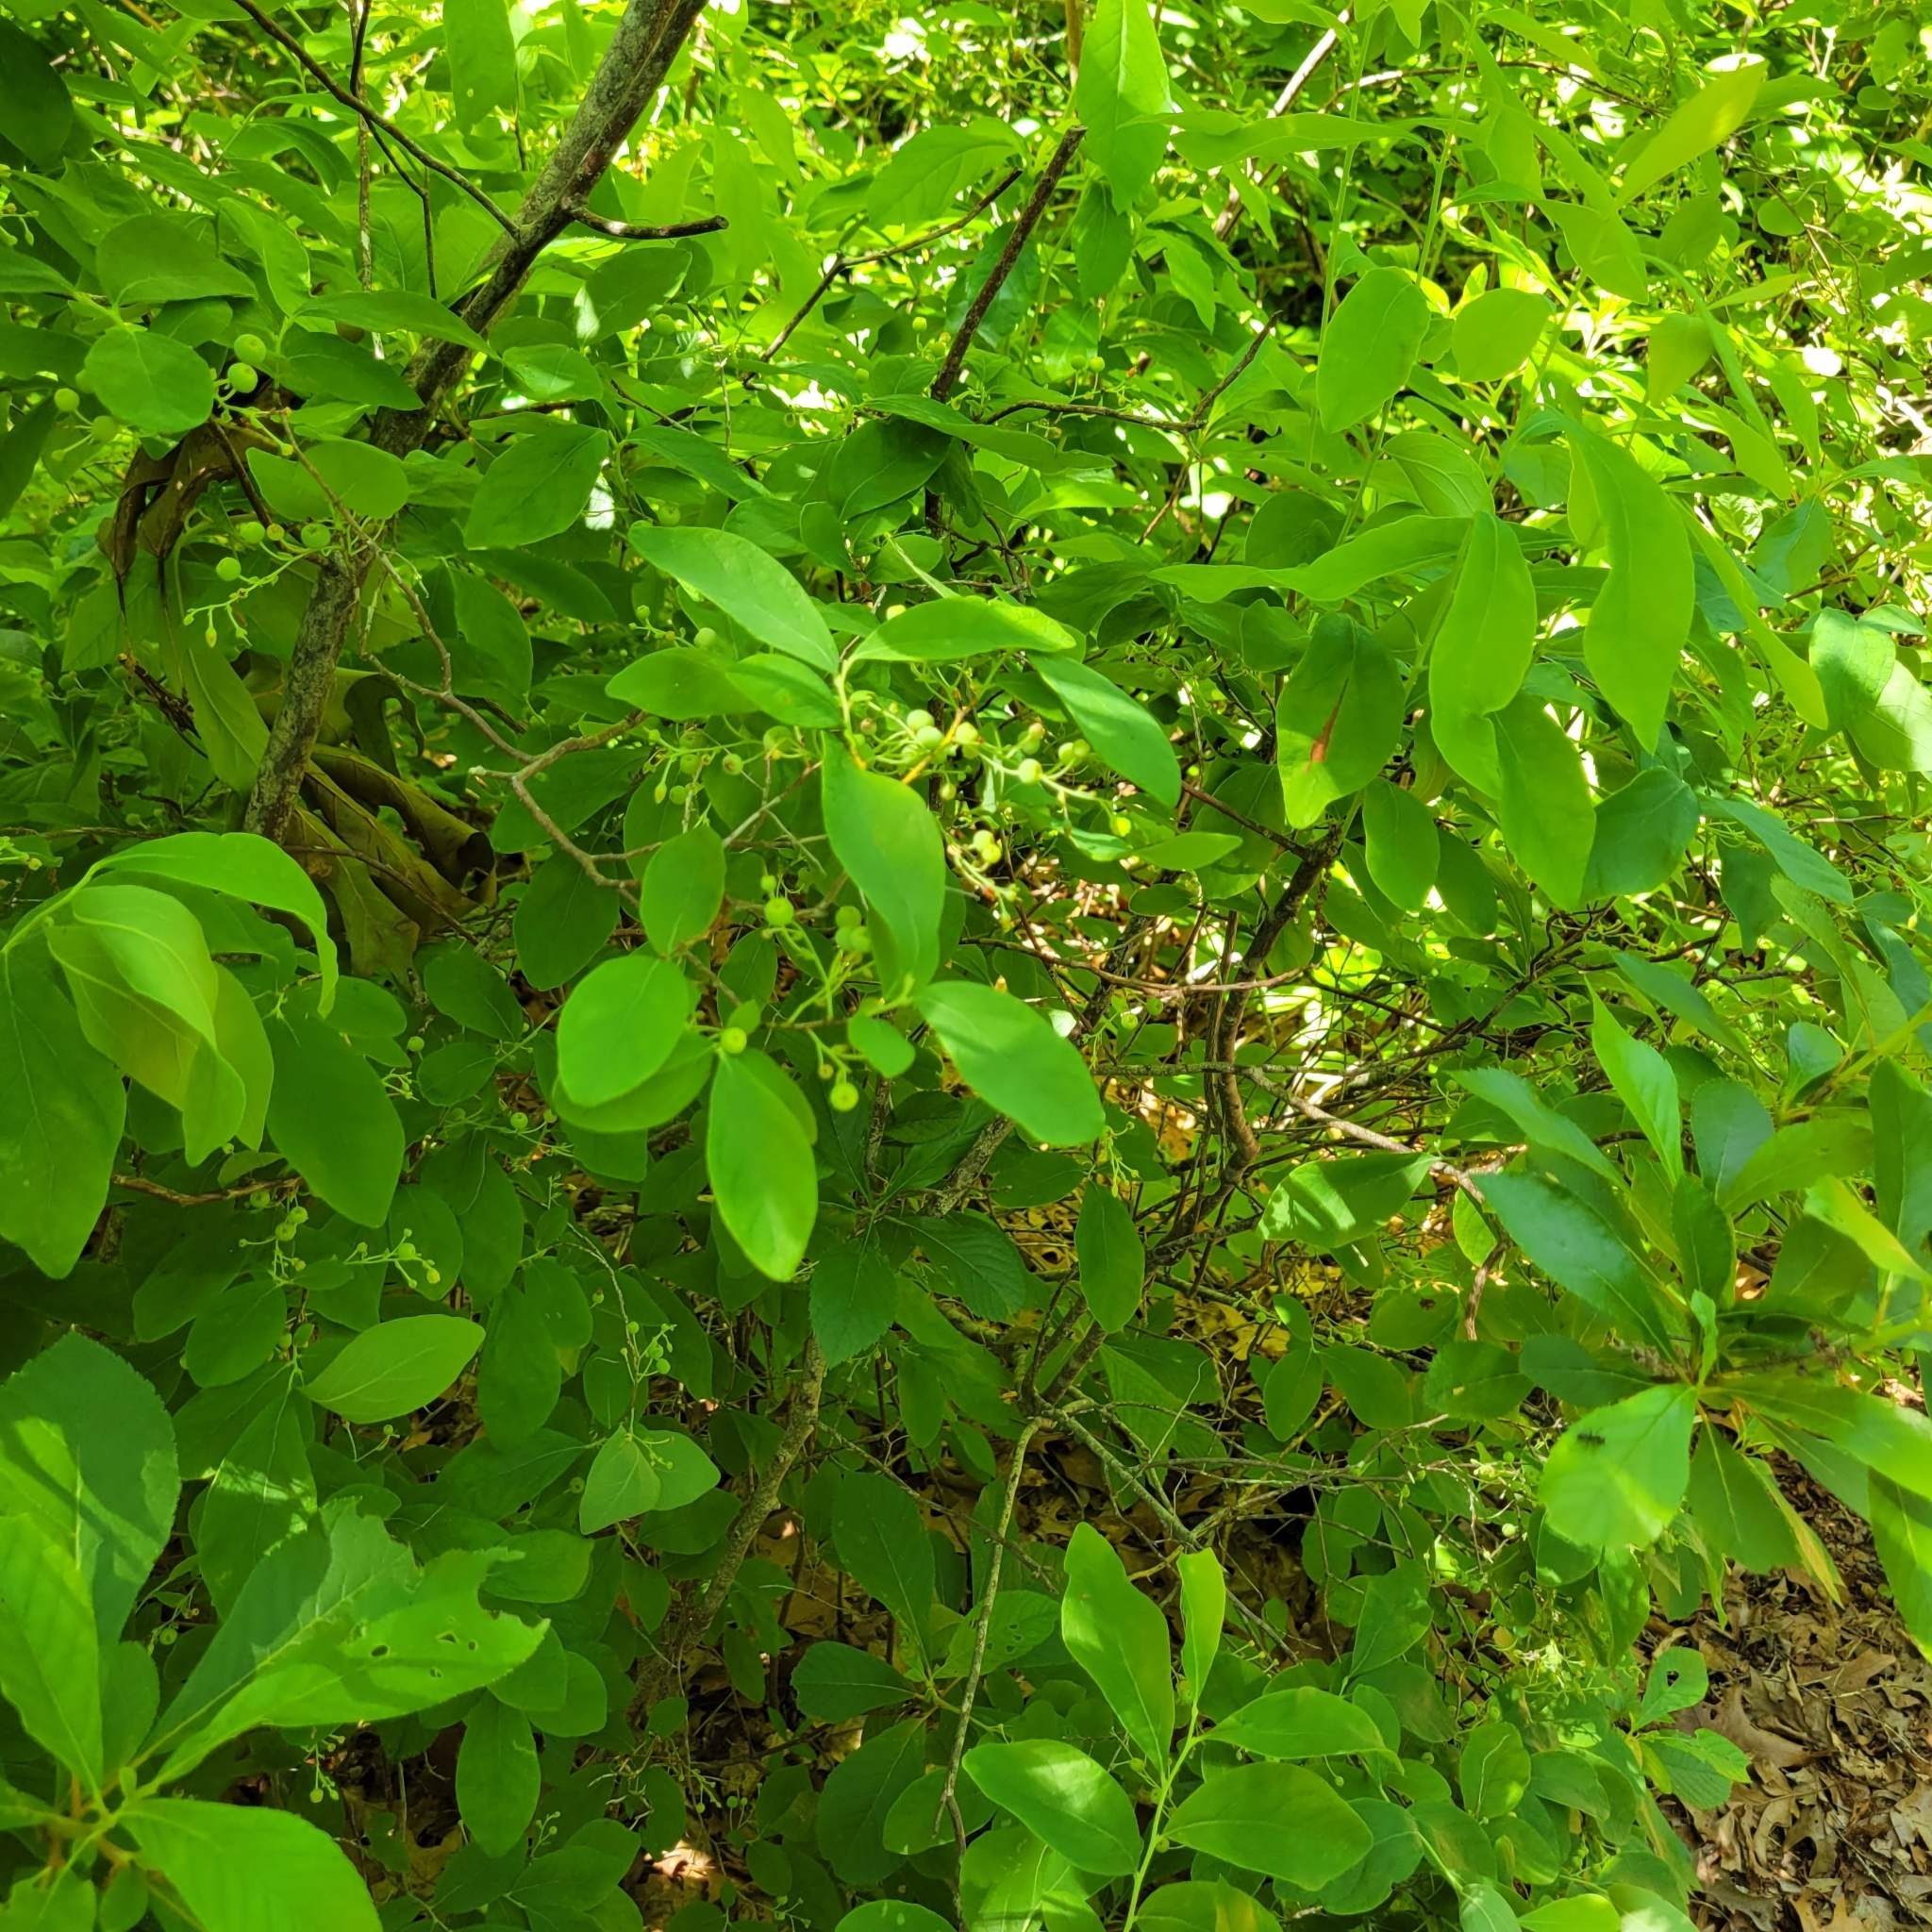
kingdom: Plantae
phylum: Tracheophyta
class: Magnoliopsida
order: Ericales
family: Ericaceae
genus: Gaylussacia
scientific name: Gaylussacia frondosa
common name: Dangleberry
